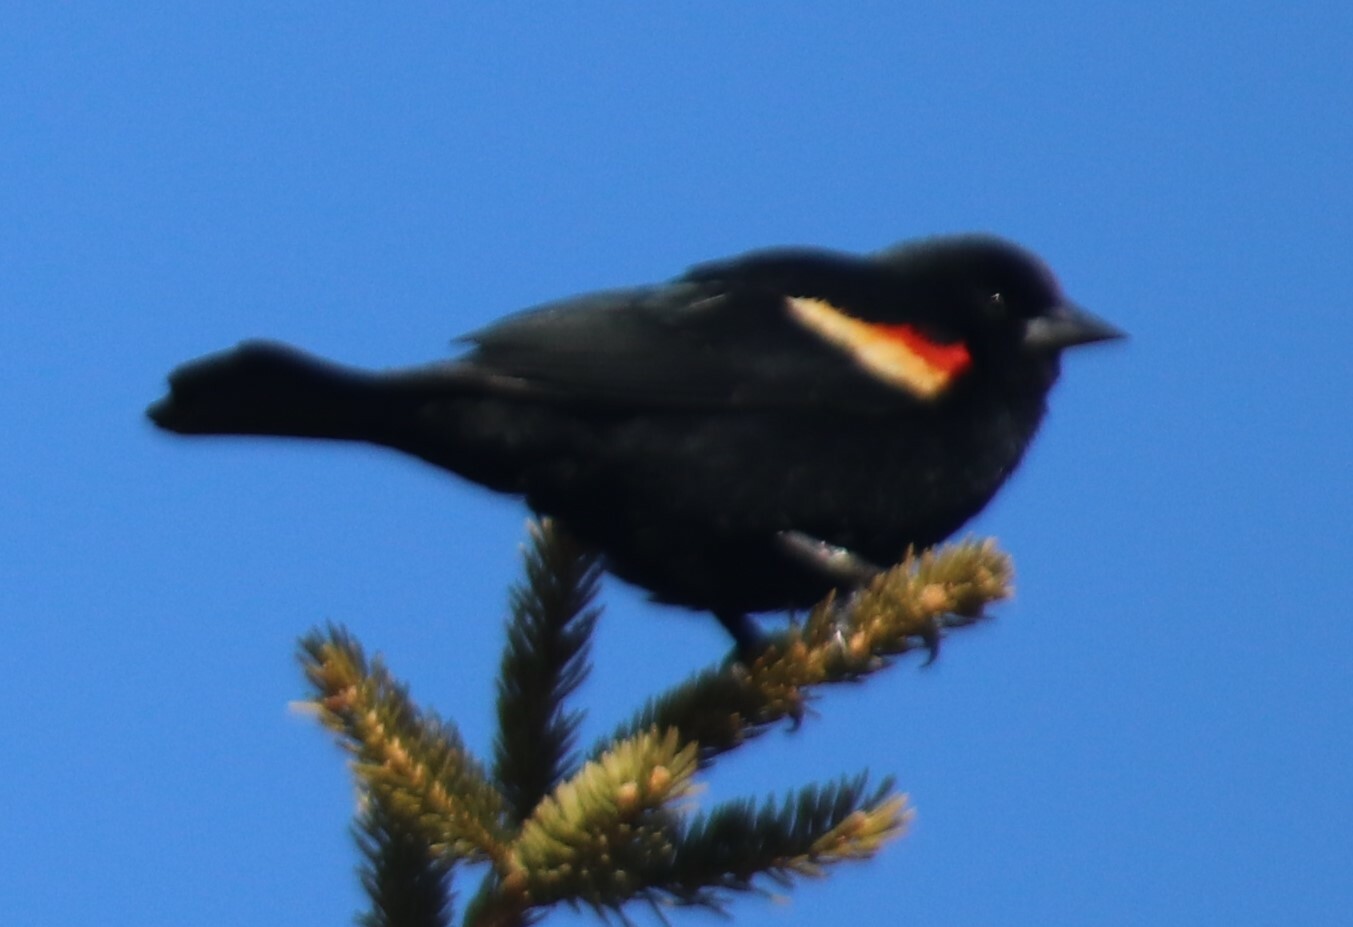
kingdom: Animalia
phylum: Chordata
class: Aves
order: Passeriformes
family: Icteridae
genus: Agelaius
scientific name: Agelaius phoeniceus
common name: Red-winged blackbird
